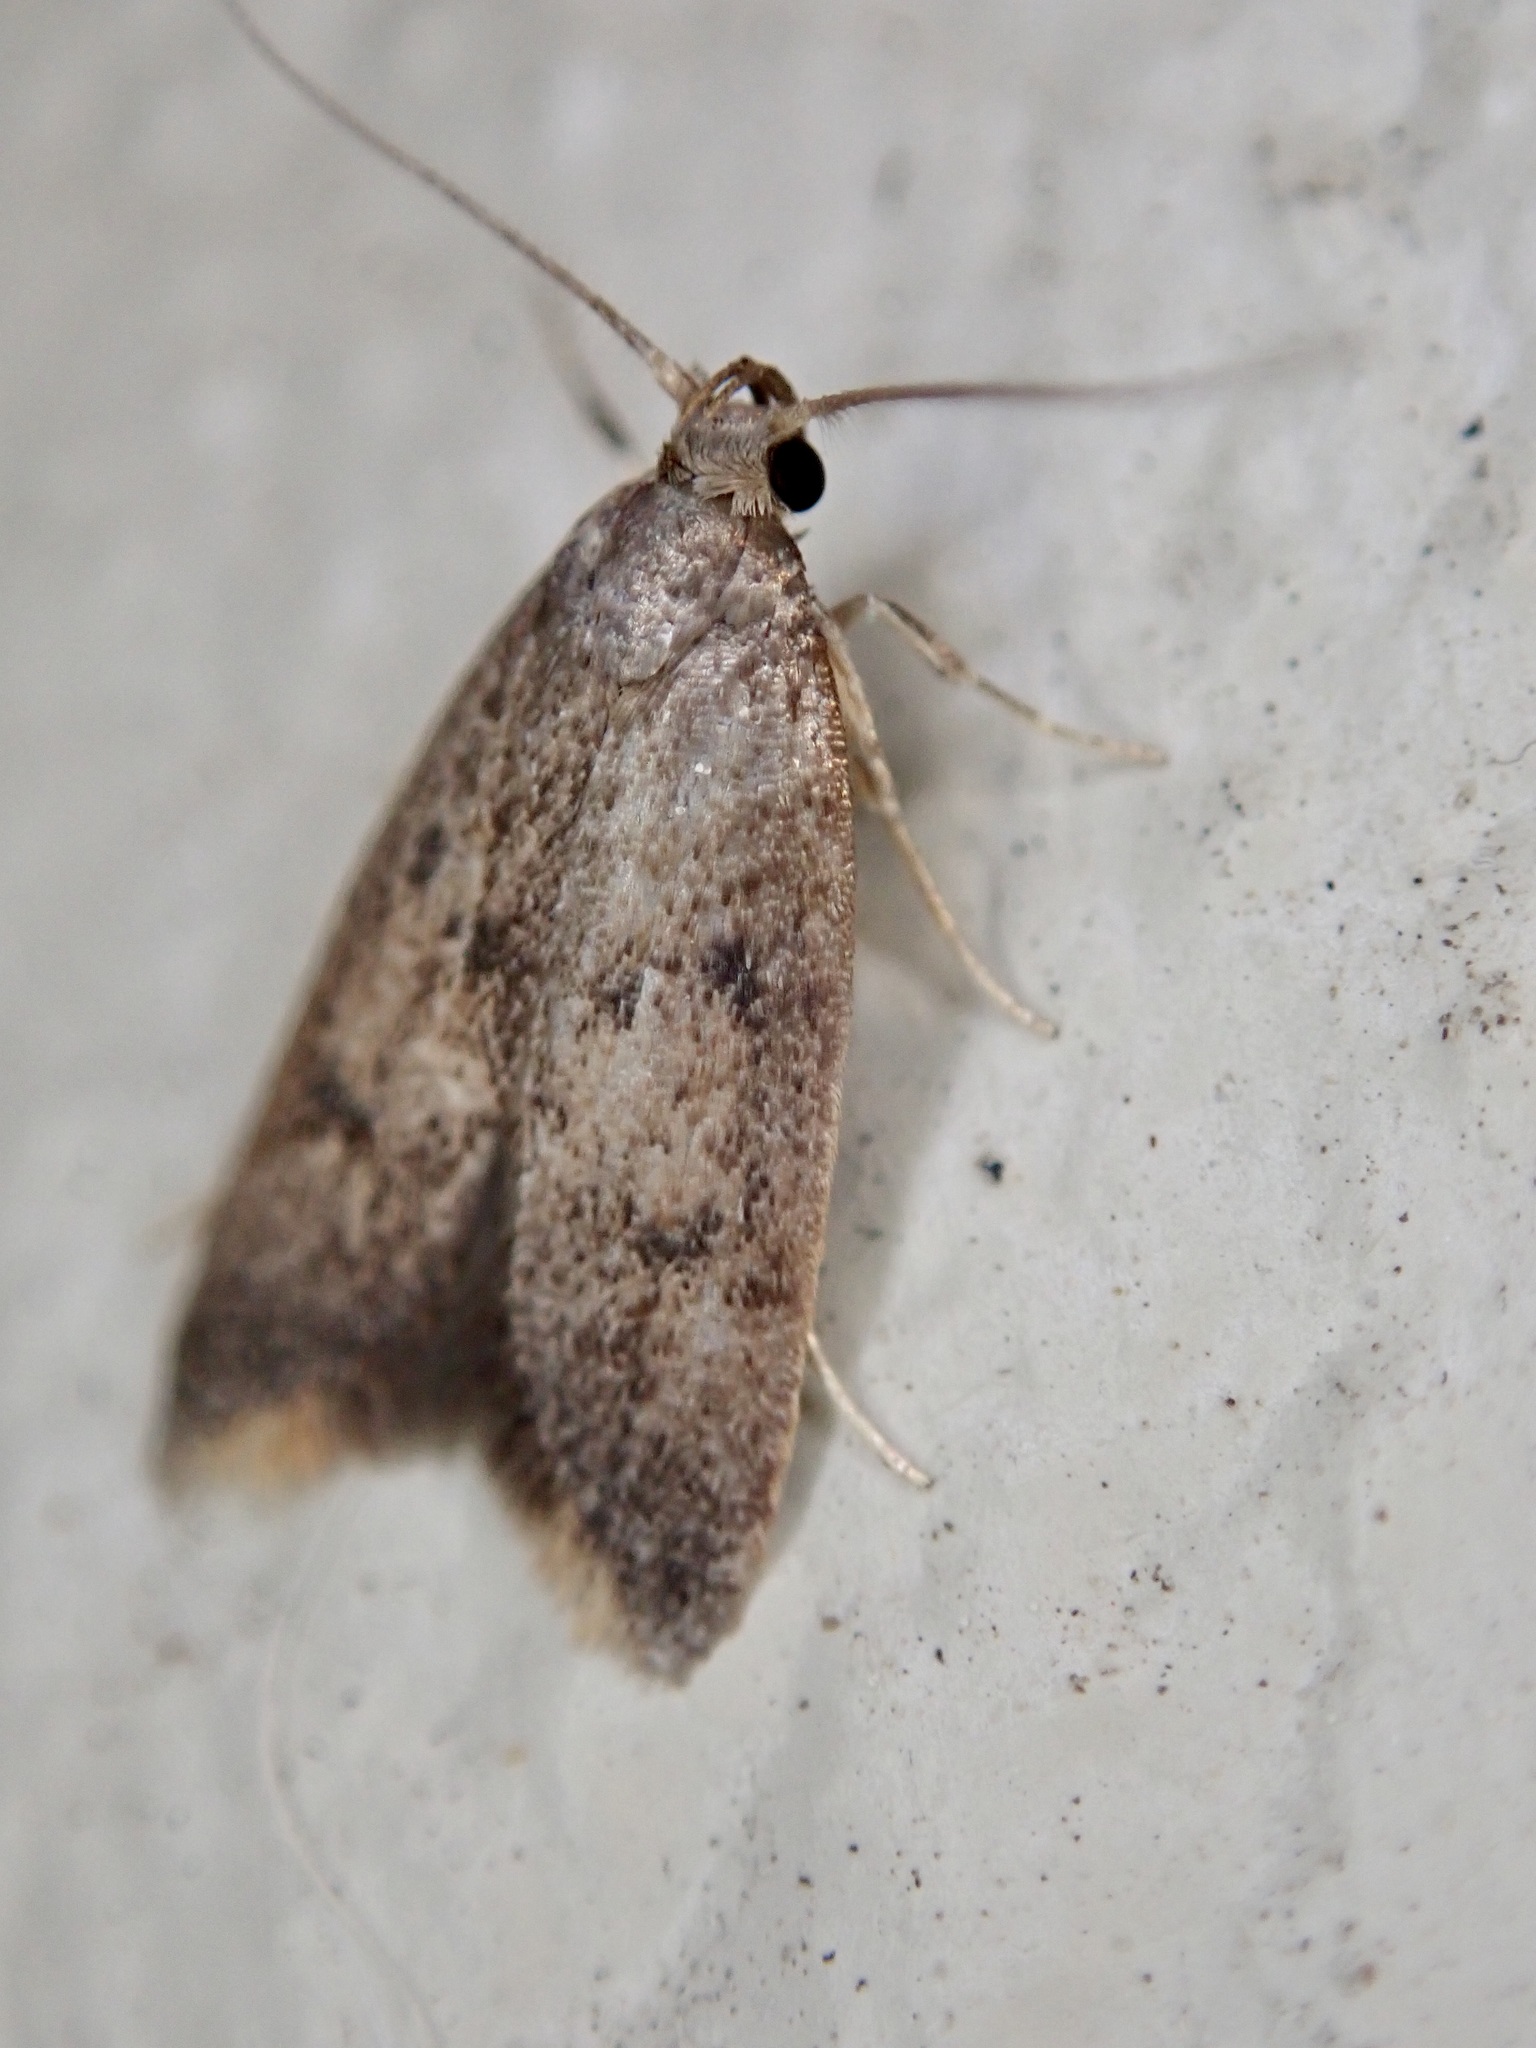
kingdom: Animalia
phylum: Arthropoda
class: Insecta
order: Lepidoptera
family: Oecophoridae
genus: Tachystola
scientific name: Tachystola acroxantha
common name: Ruddy streak
